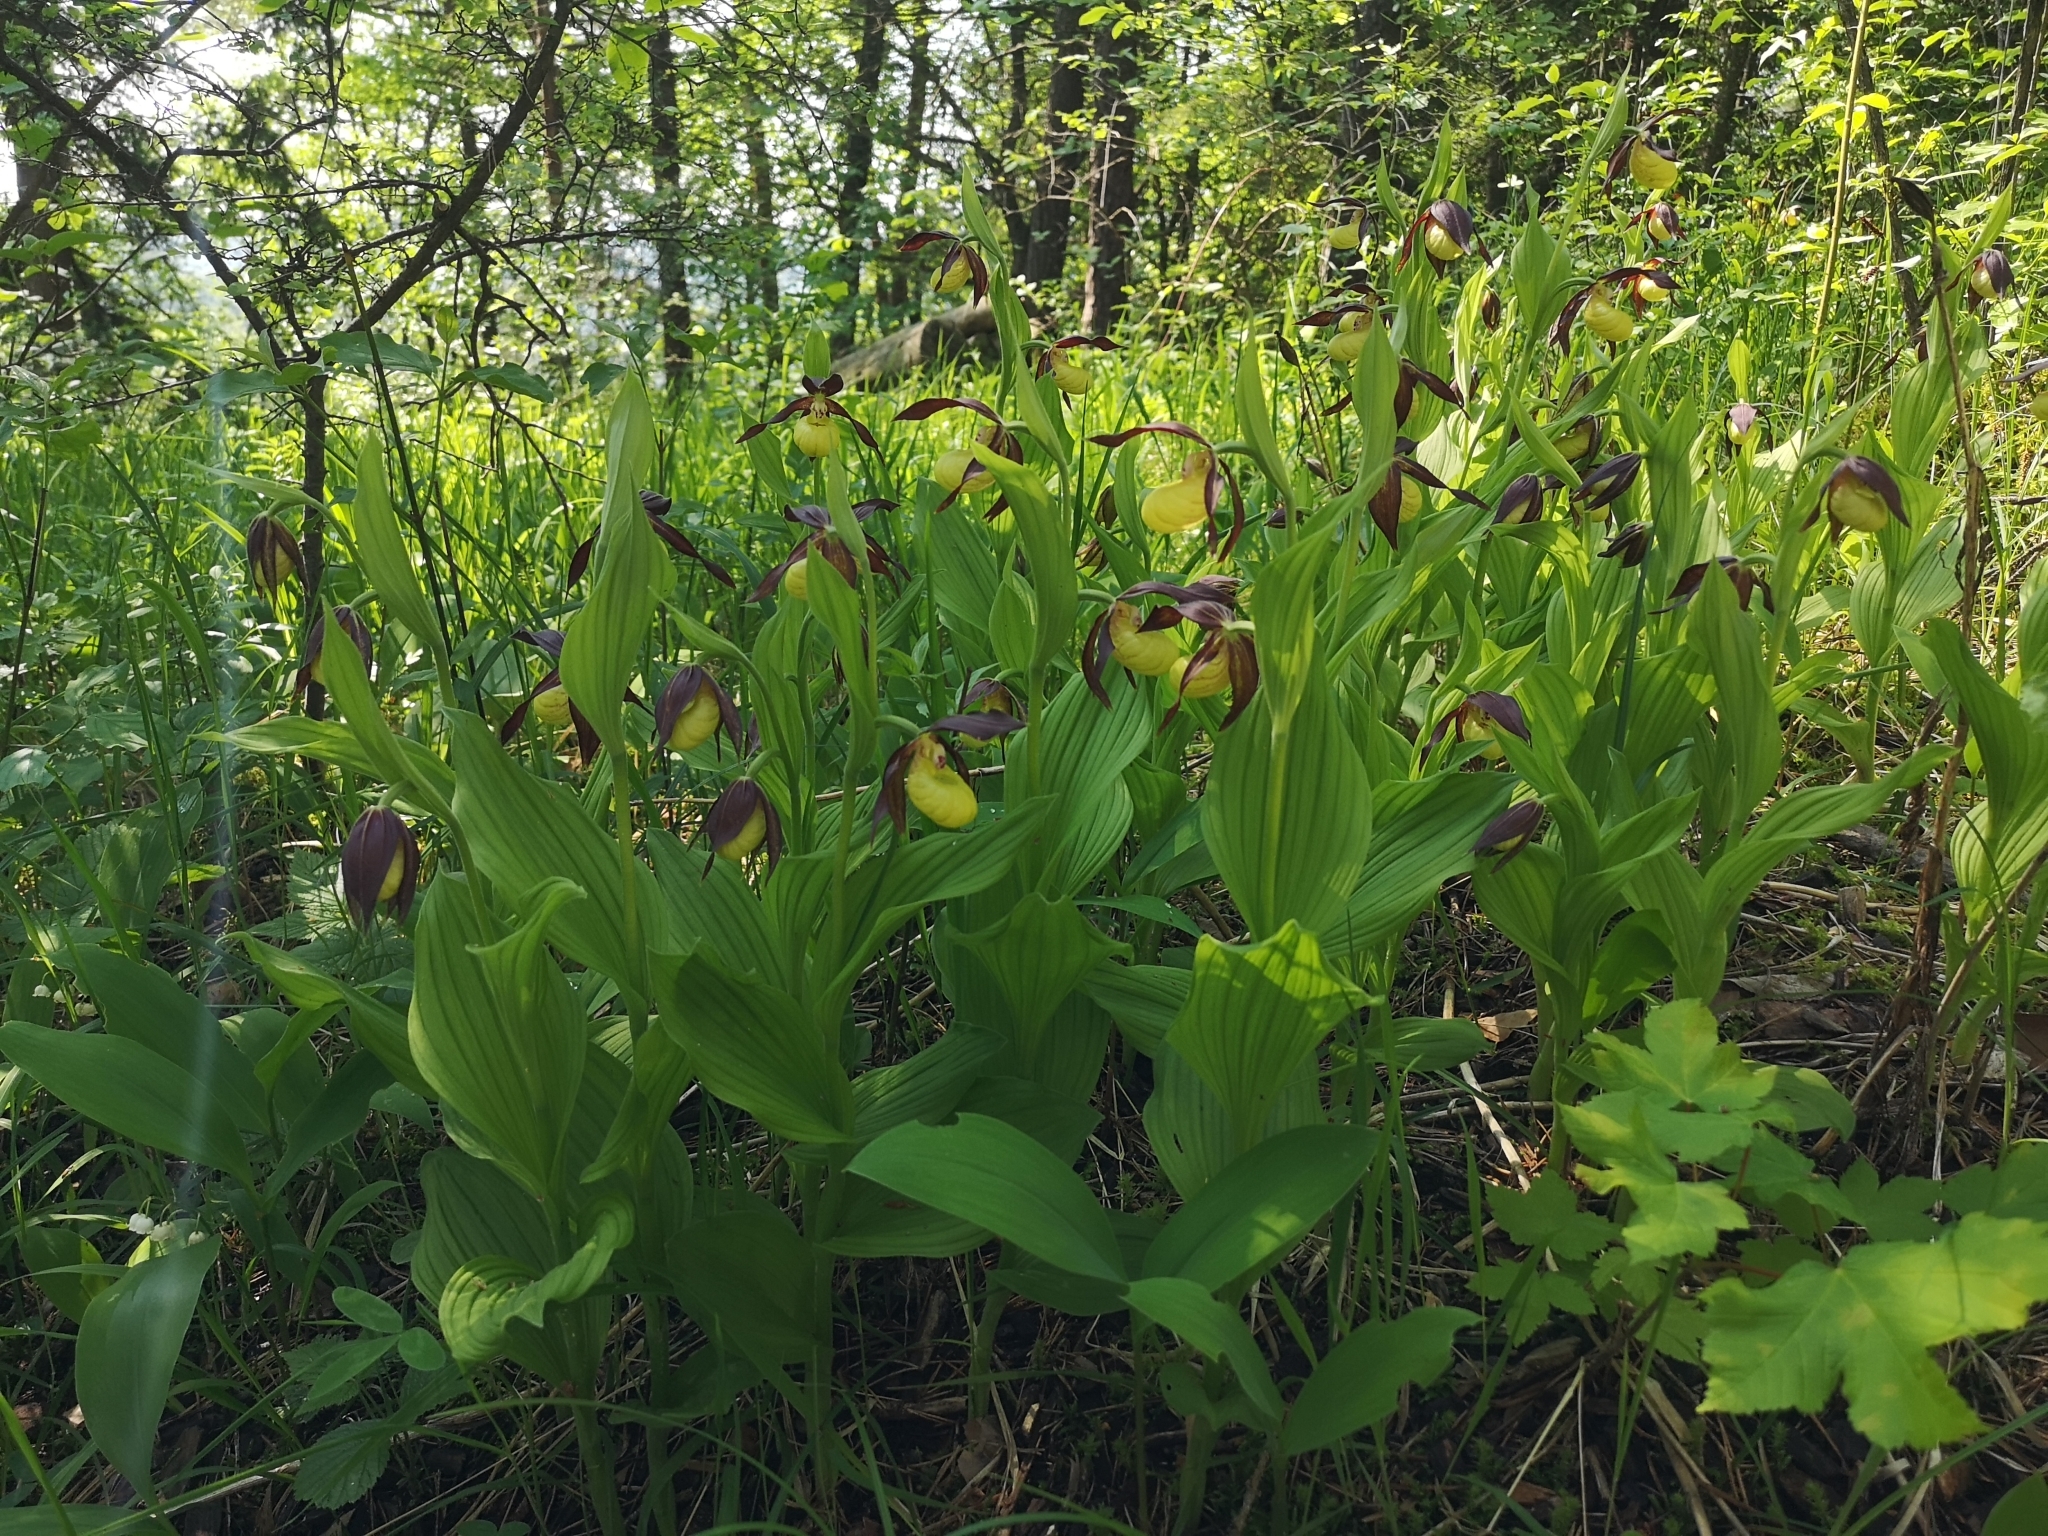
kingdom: Plantae
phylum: Tracheophyta
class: Liliopsida
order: Asparagales
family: Orchidaceae
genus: Cypripedium
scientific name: Cypripedium calceolus
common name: Lady's-slipper
